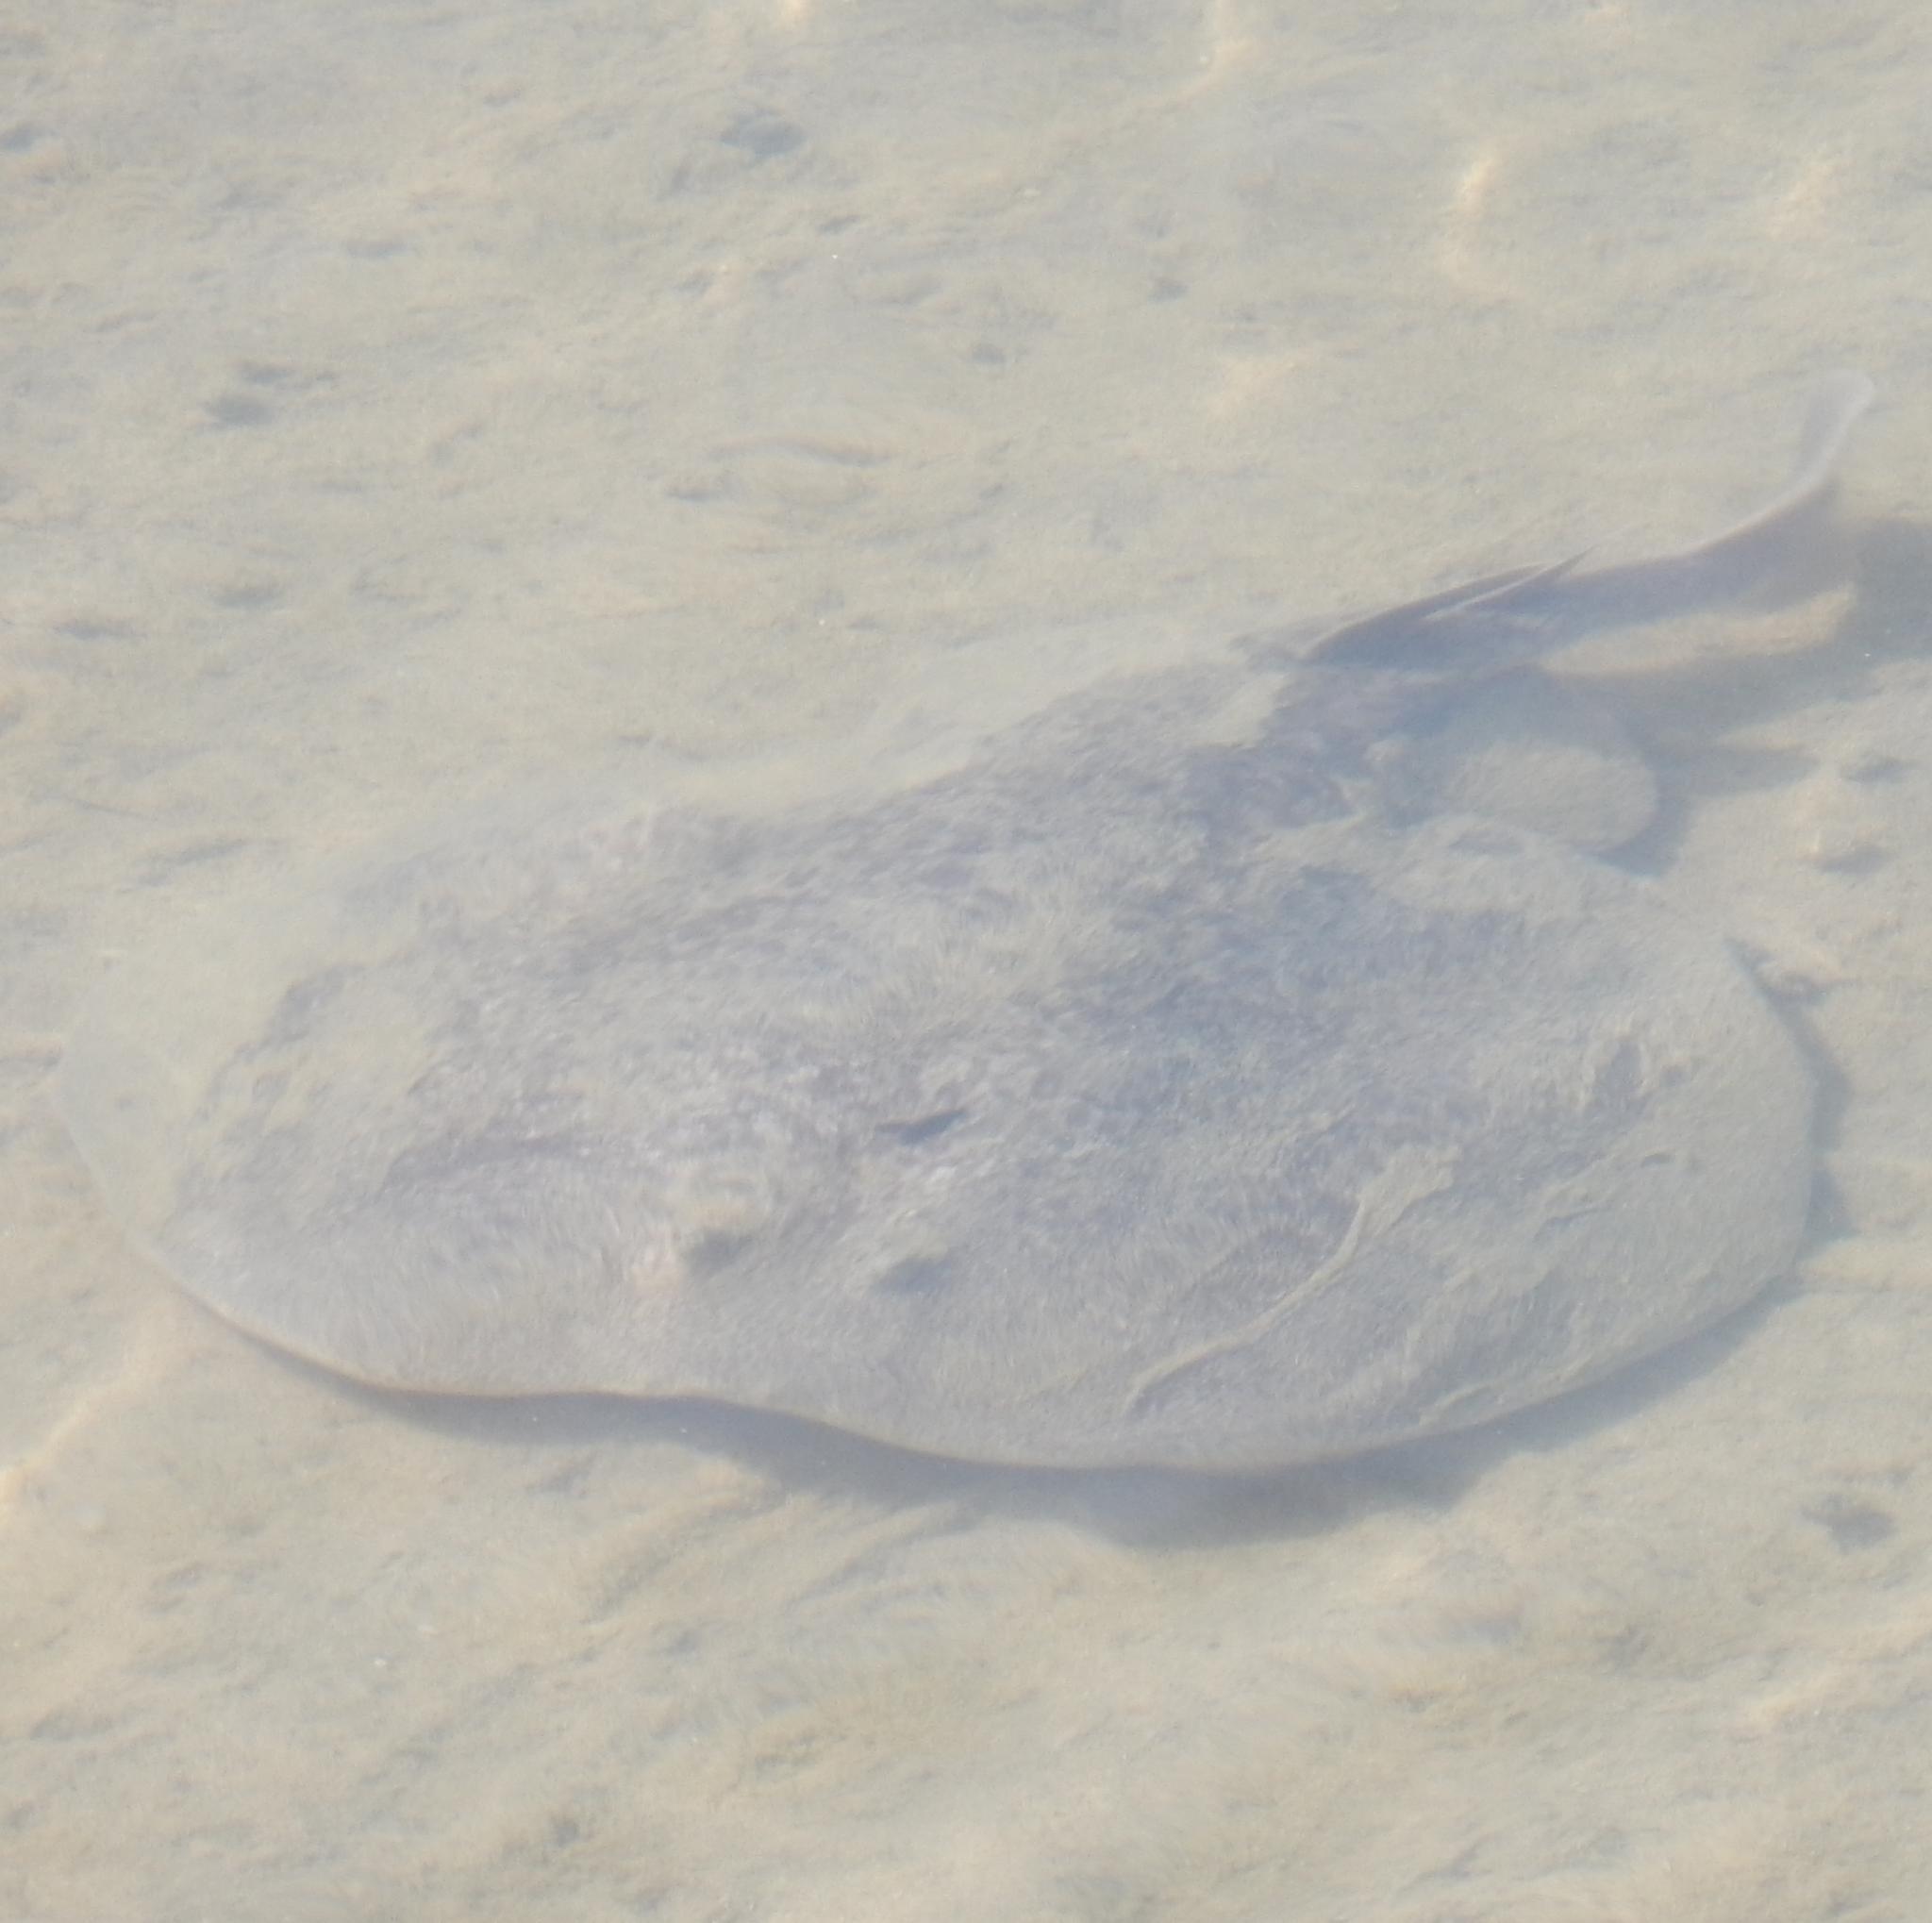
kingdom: Animalia
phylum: Chordata
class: Elasmobranchii
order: Torpediniformes
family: Torpedinidae
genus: Torpedo
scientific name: Torpedo sinuspersici
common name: Marbled electric ray
